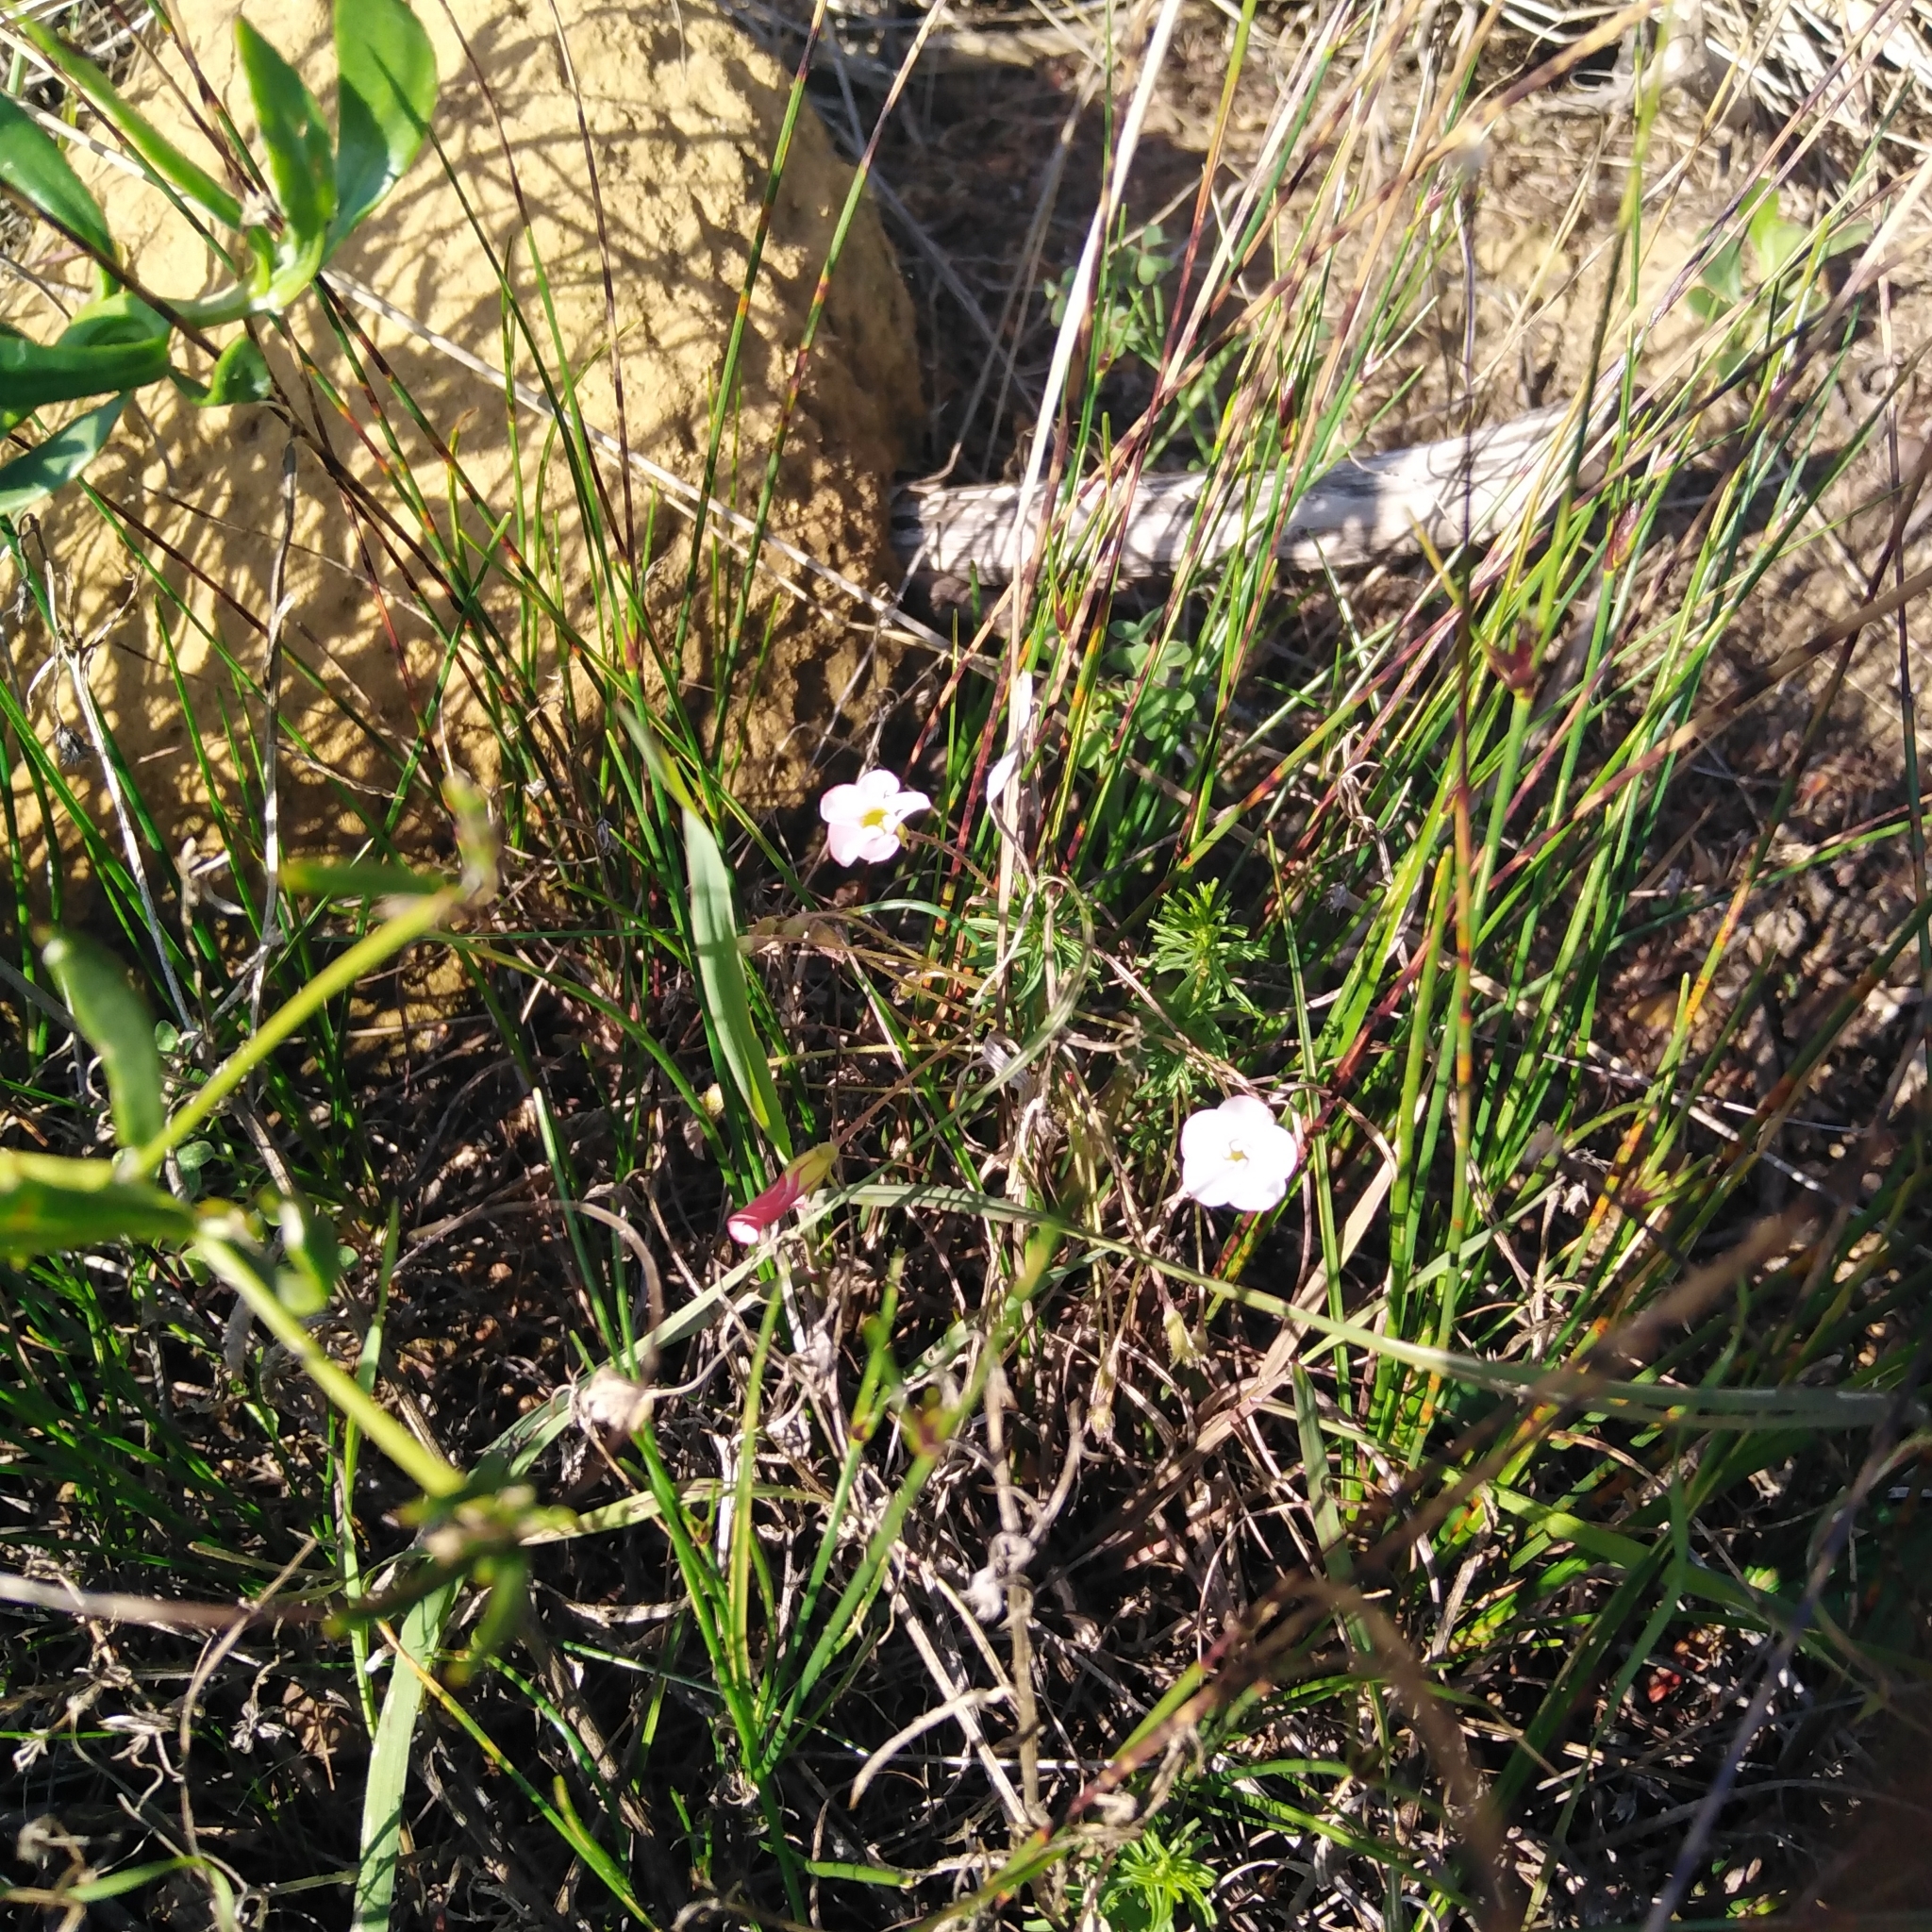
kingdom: Plantae
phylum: Tracheophyta
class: Magnoliopsida
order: Oxalidales
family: Oxalidaceae
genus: Oxalis
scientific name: Oxalis tenuifolia
